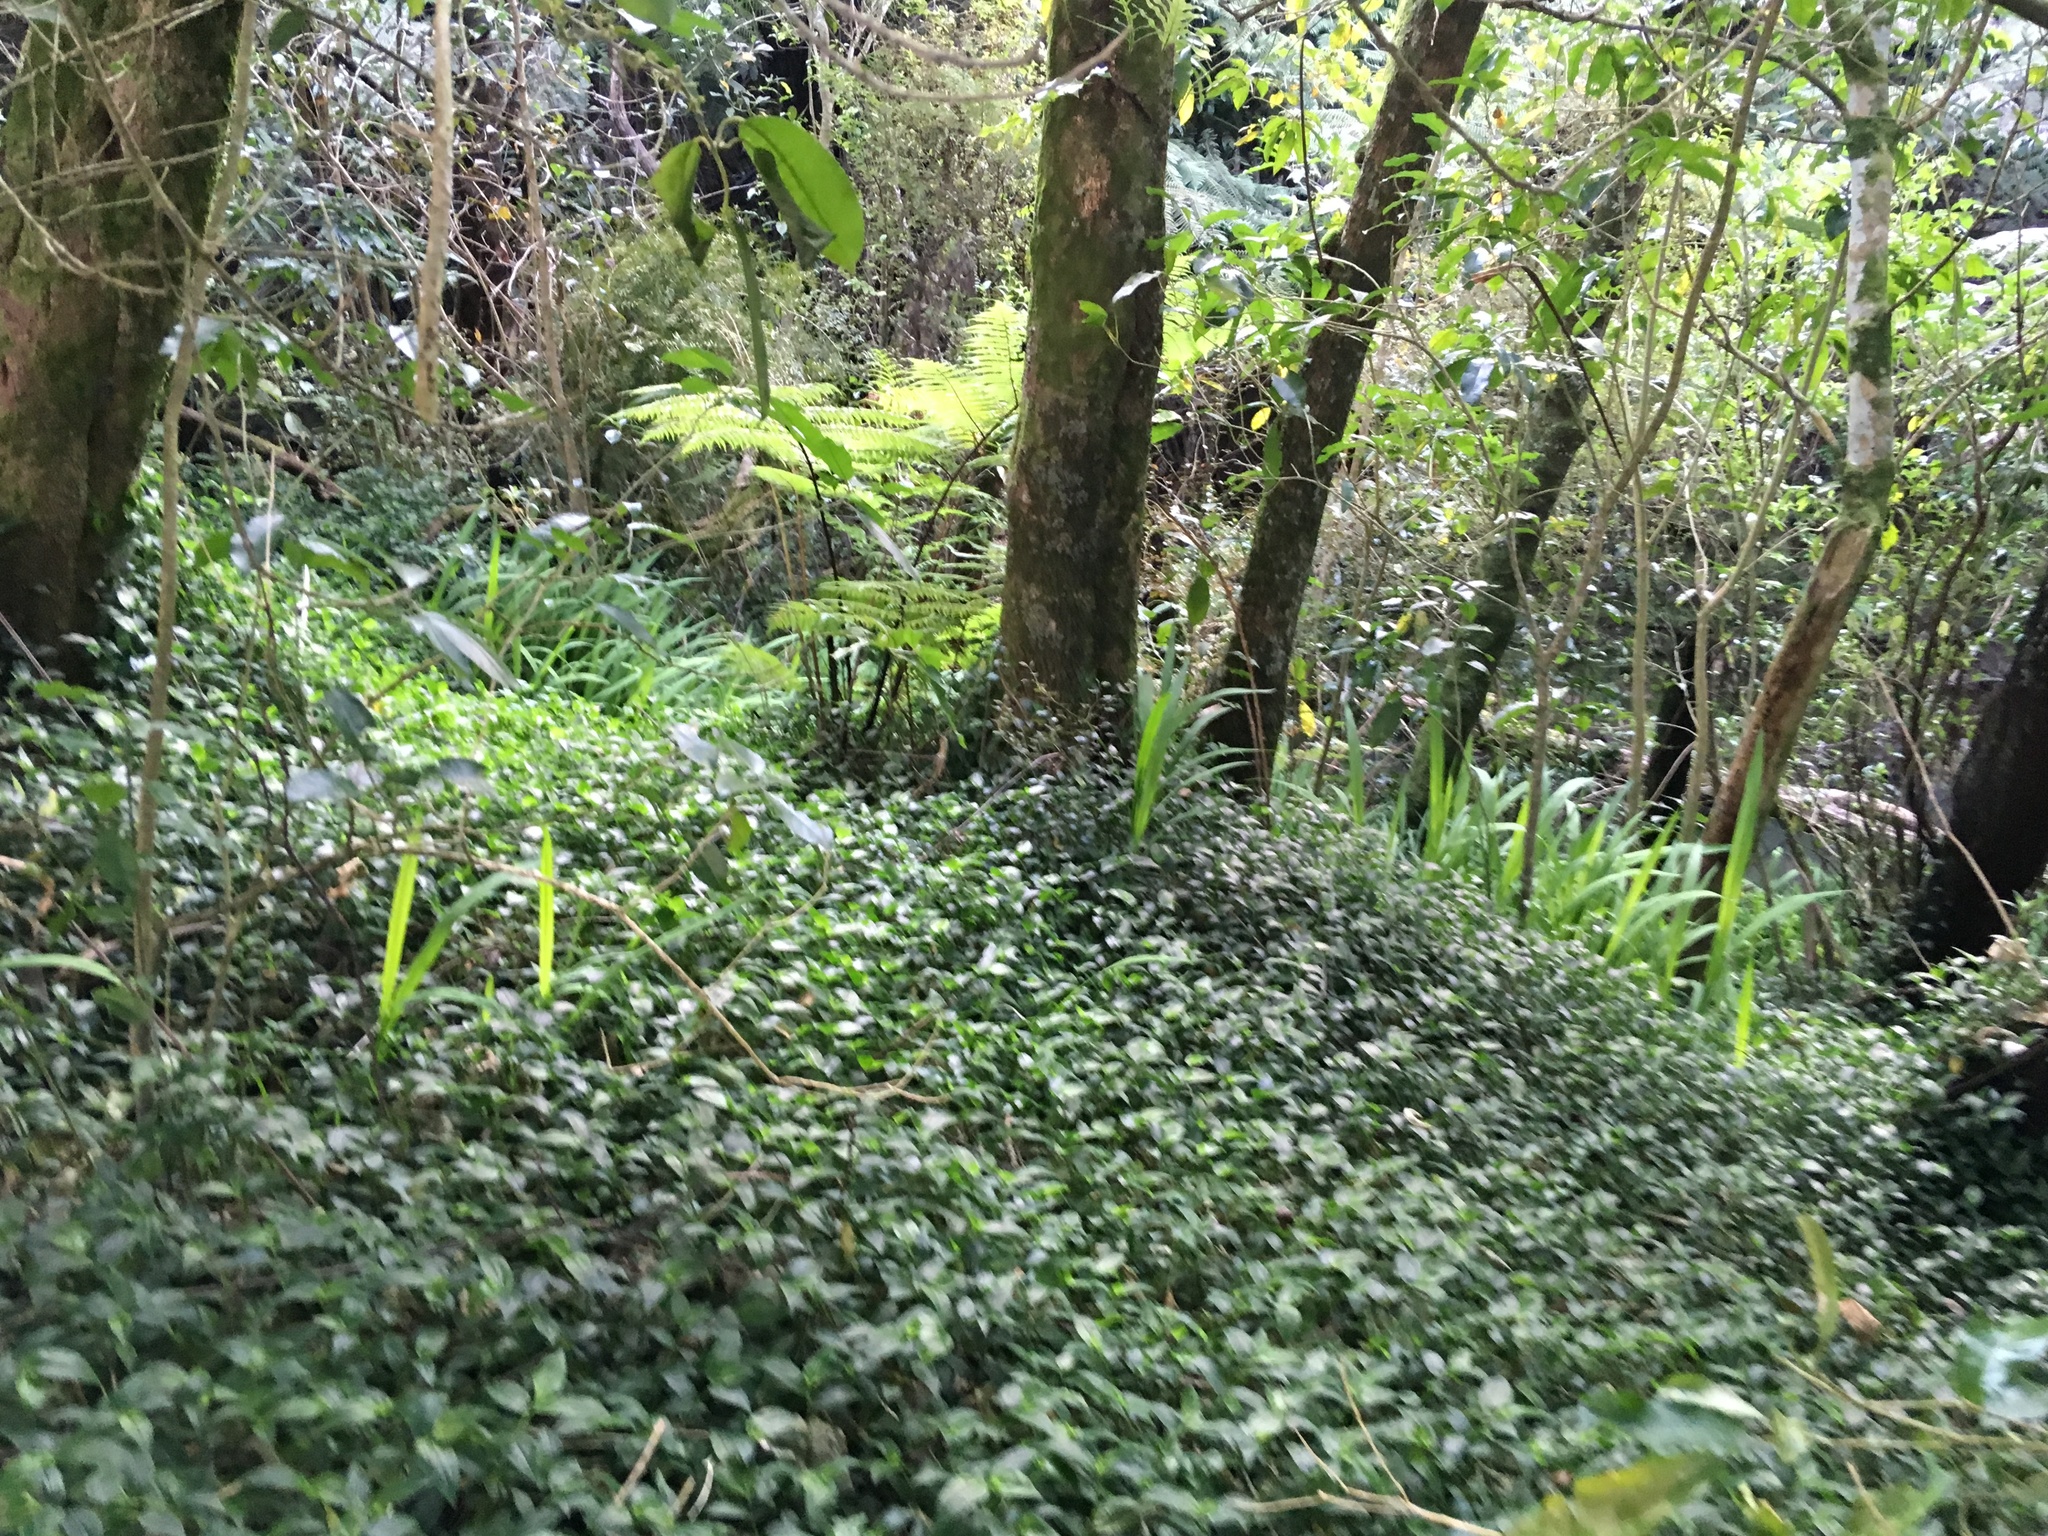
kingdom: Plantae
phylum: Tracheophyta
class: Liliopsida
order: Commelinales
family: Commelinaceae
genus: Tradescantia
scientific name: Tradescantia fluminensis
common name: Wandering-jew
